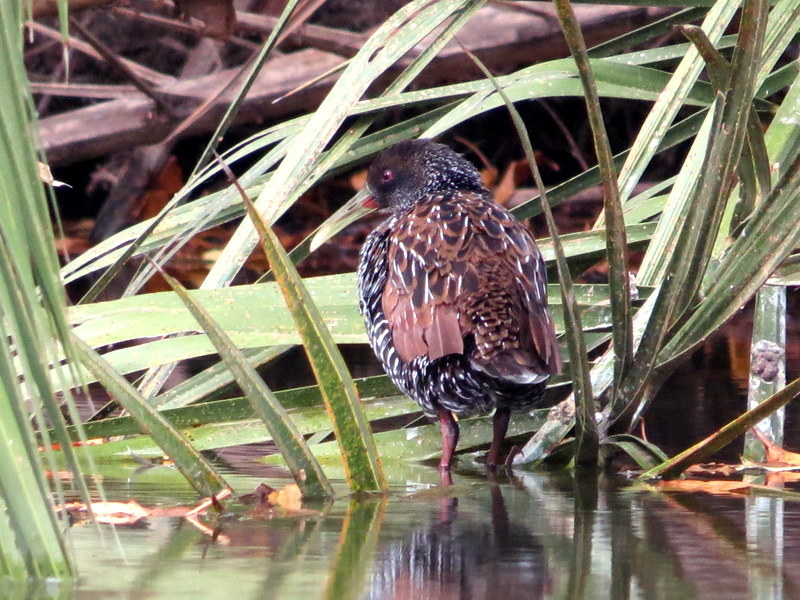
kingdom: Animalia
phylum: Chordata
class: Aves
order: Gruiformes
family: Rallidae
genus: Pardirallus
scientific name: Pardirallus maculatus
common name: Spotted rail
